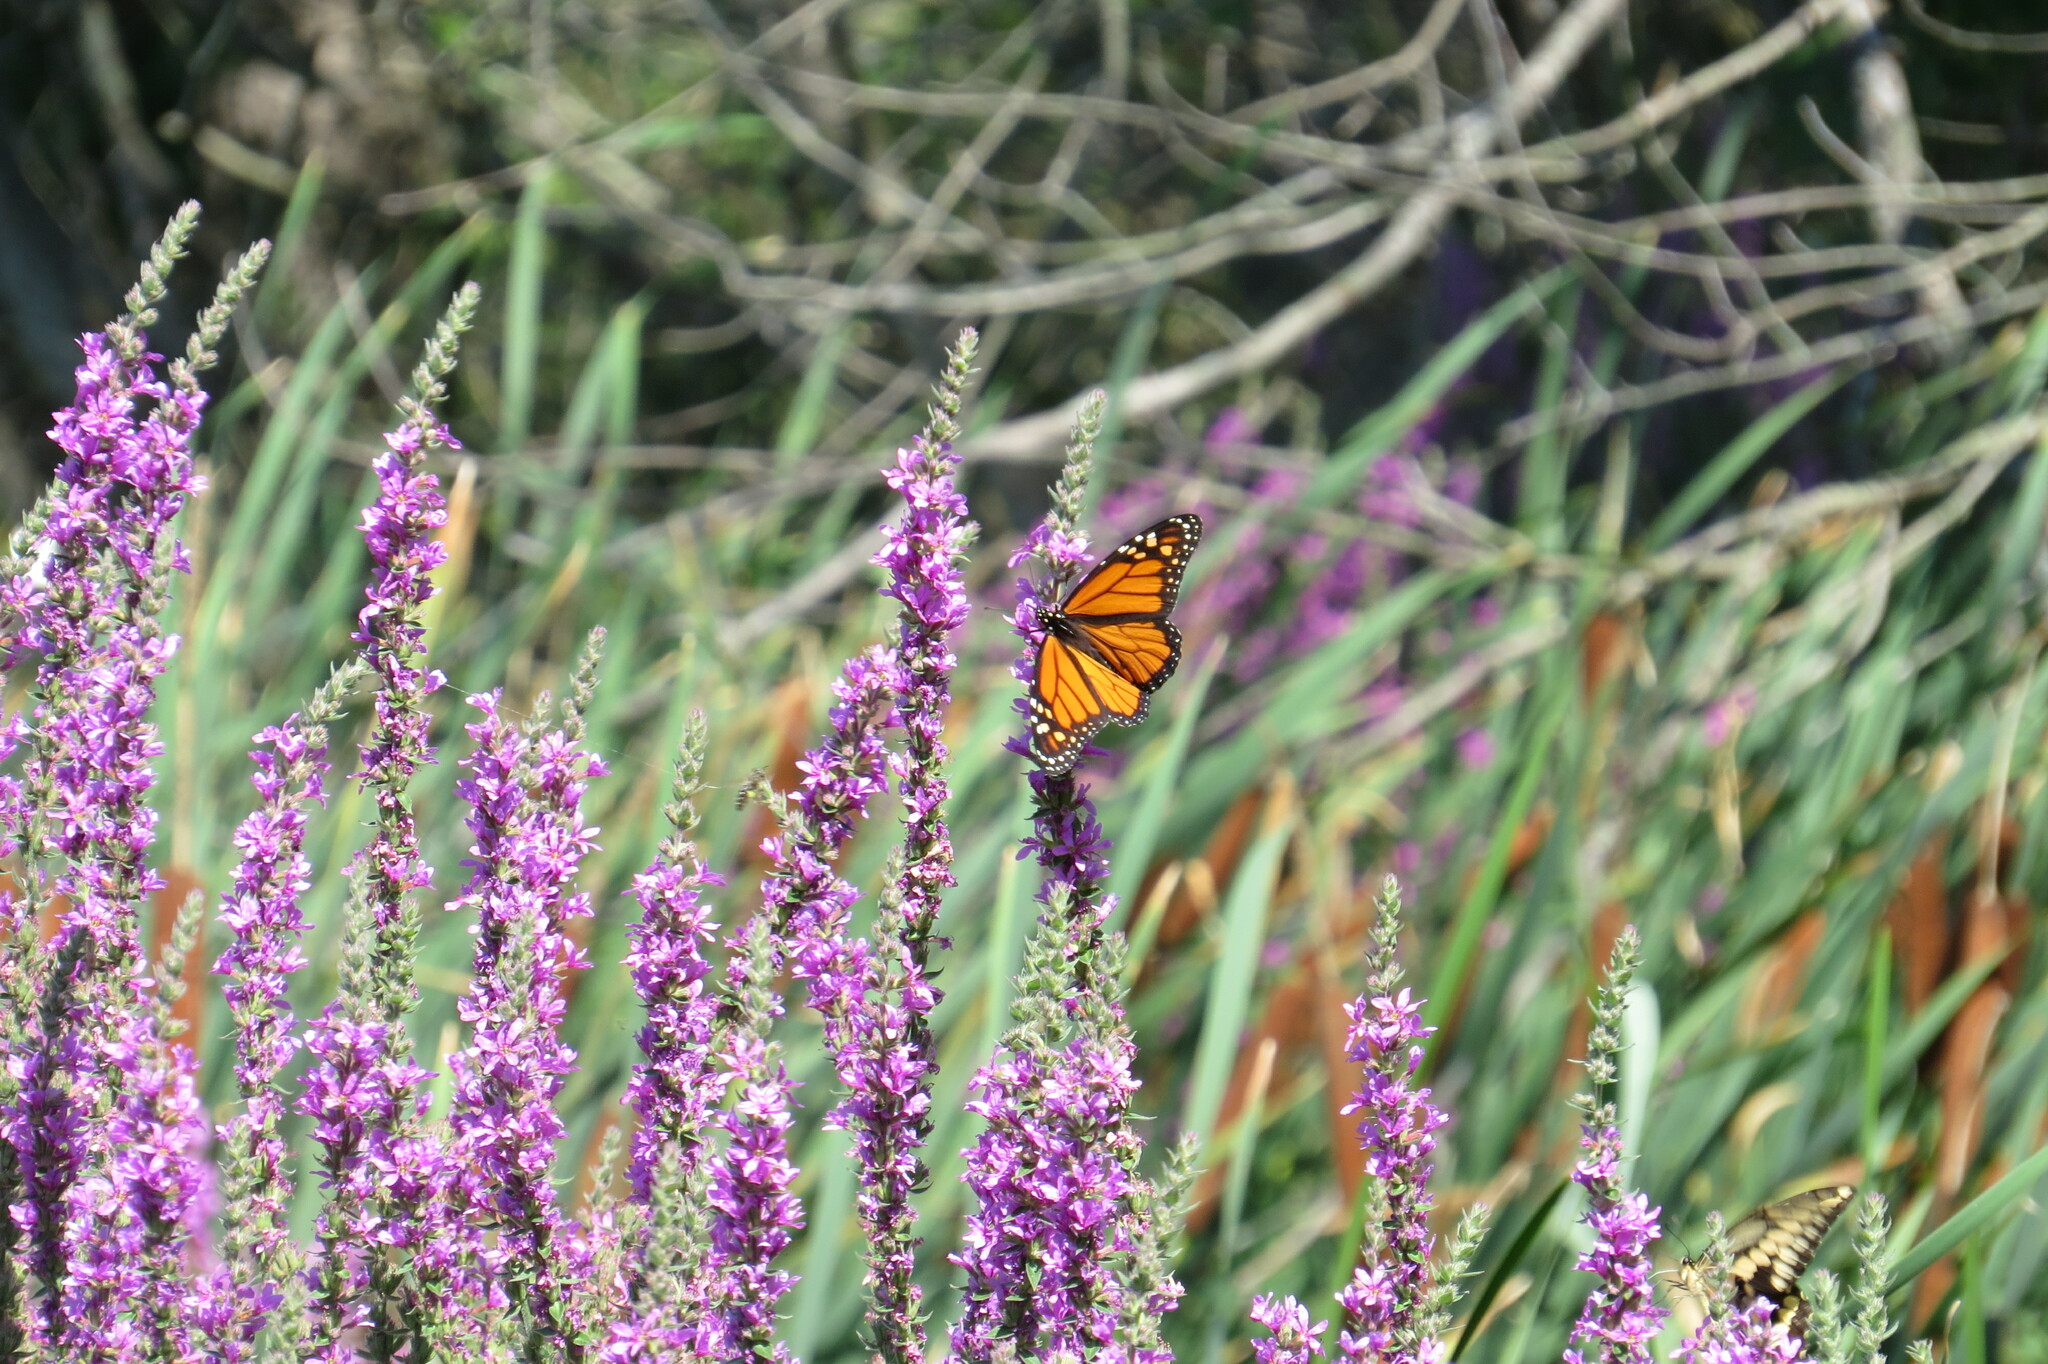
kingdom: Plantae
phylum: Tracheophyta
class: Magnoliopsida
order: Myrtales
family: Lythraceae
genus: Lythrum
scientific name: Lythrum salicaria
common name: Purple loosestrife
